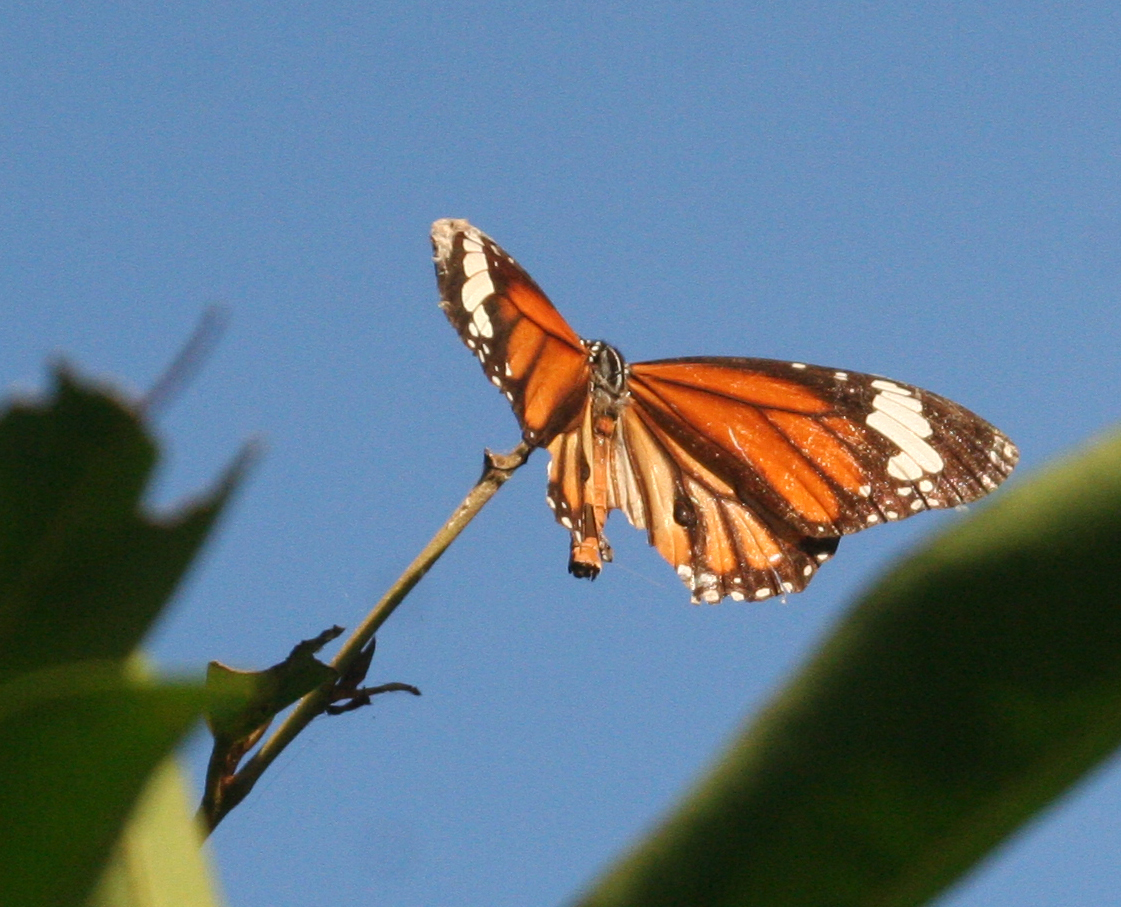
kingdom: Animalia
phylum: Arthropoda
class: Insecta
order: Lepidoptera
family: Nymphalidae
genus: Danaus
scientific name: Danaus genutia
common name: Common tiger butterfly
